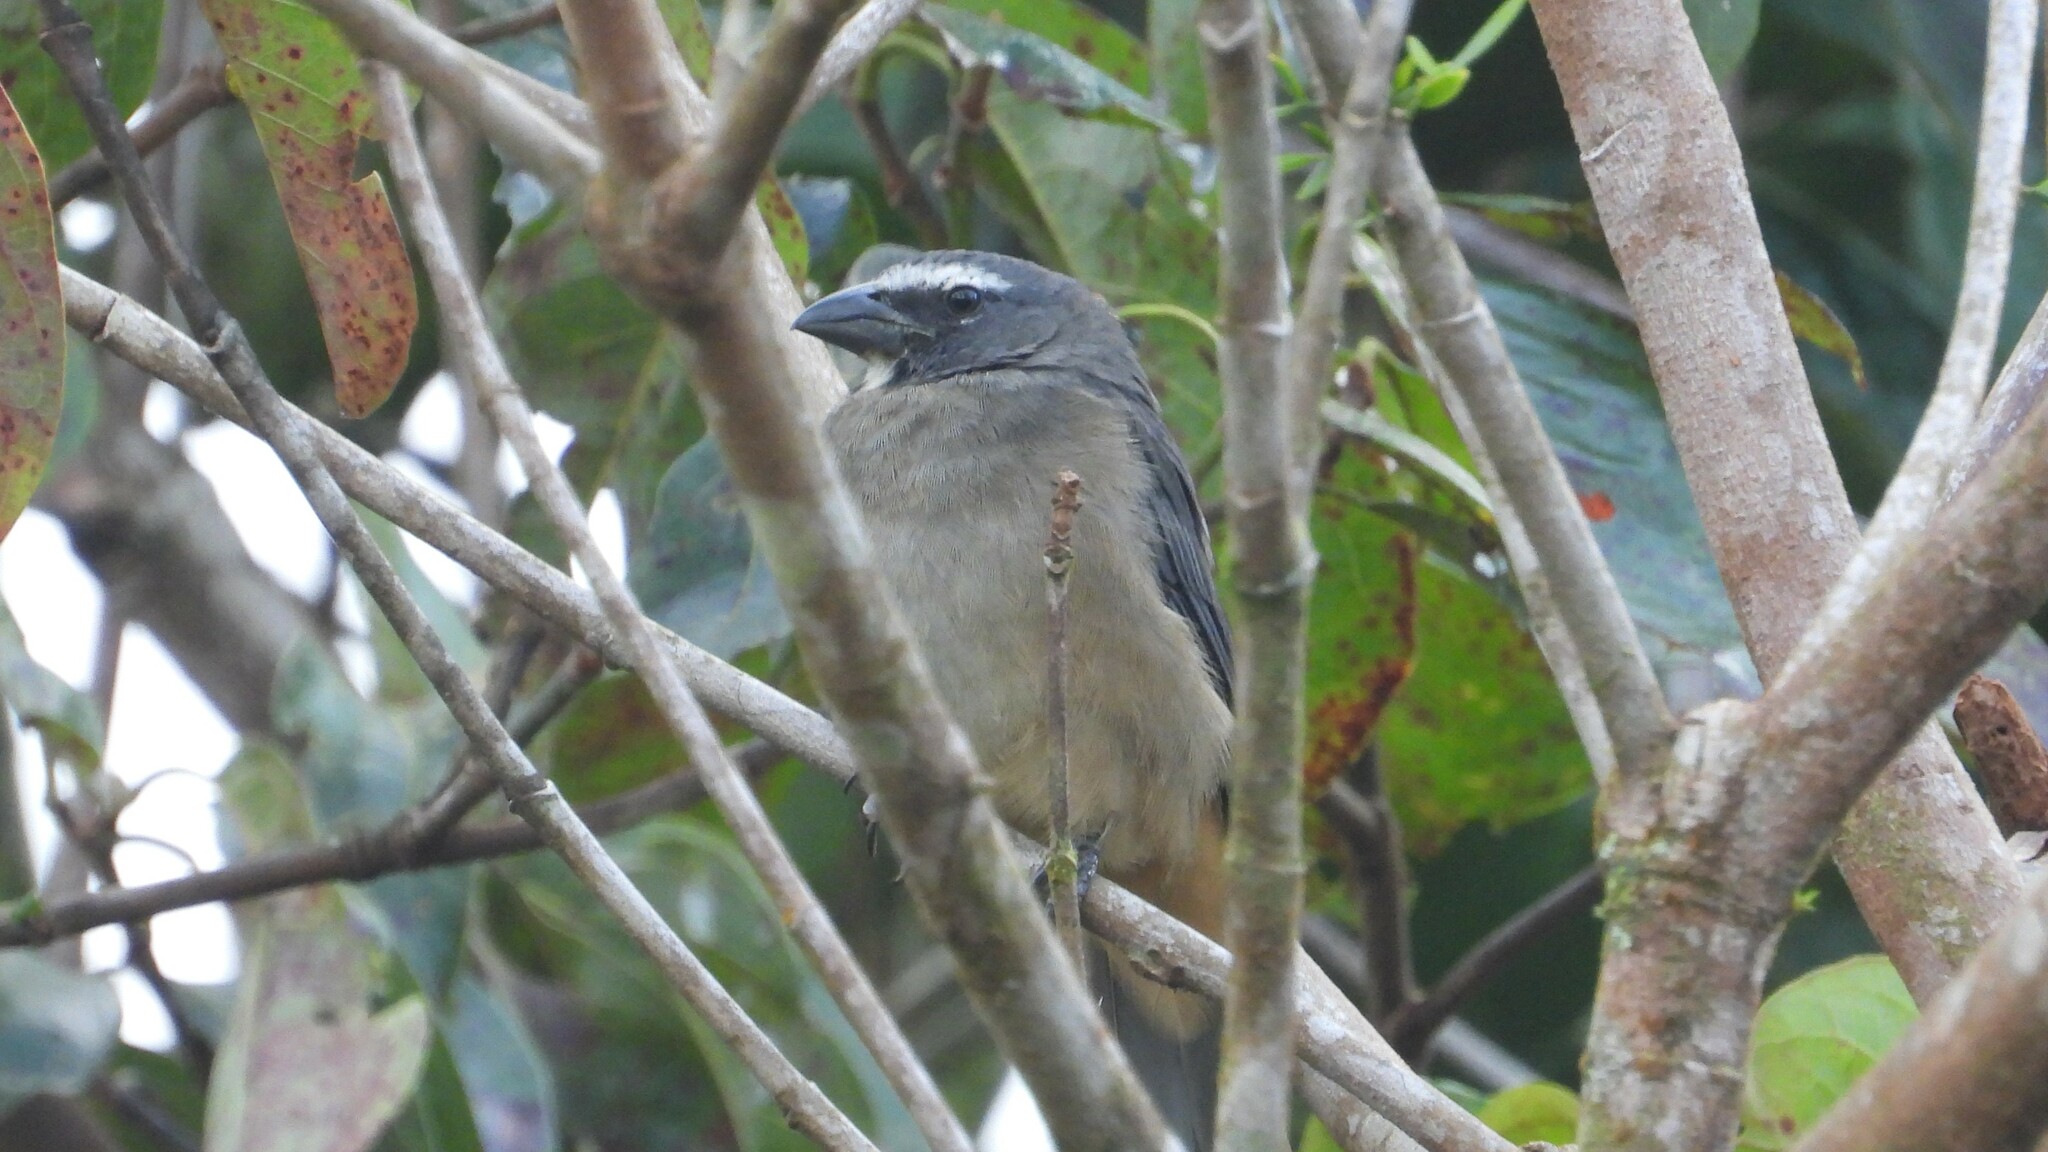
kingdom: Animalia
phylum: Chordata
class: Aves
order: Passeriformes
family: Thraupidae
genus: Saltator
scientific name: Saltator grandis
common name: Cinnamon-bellied saltator
